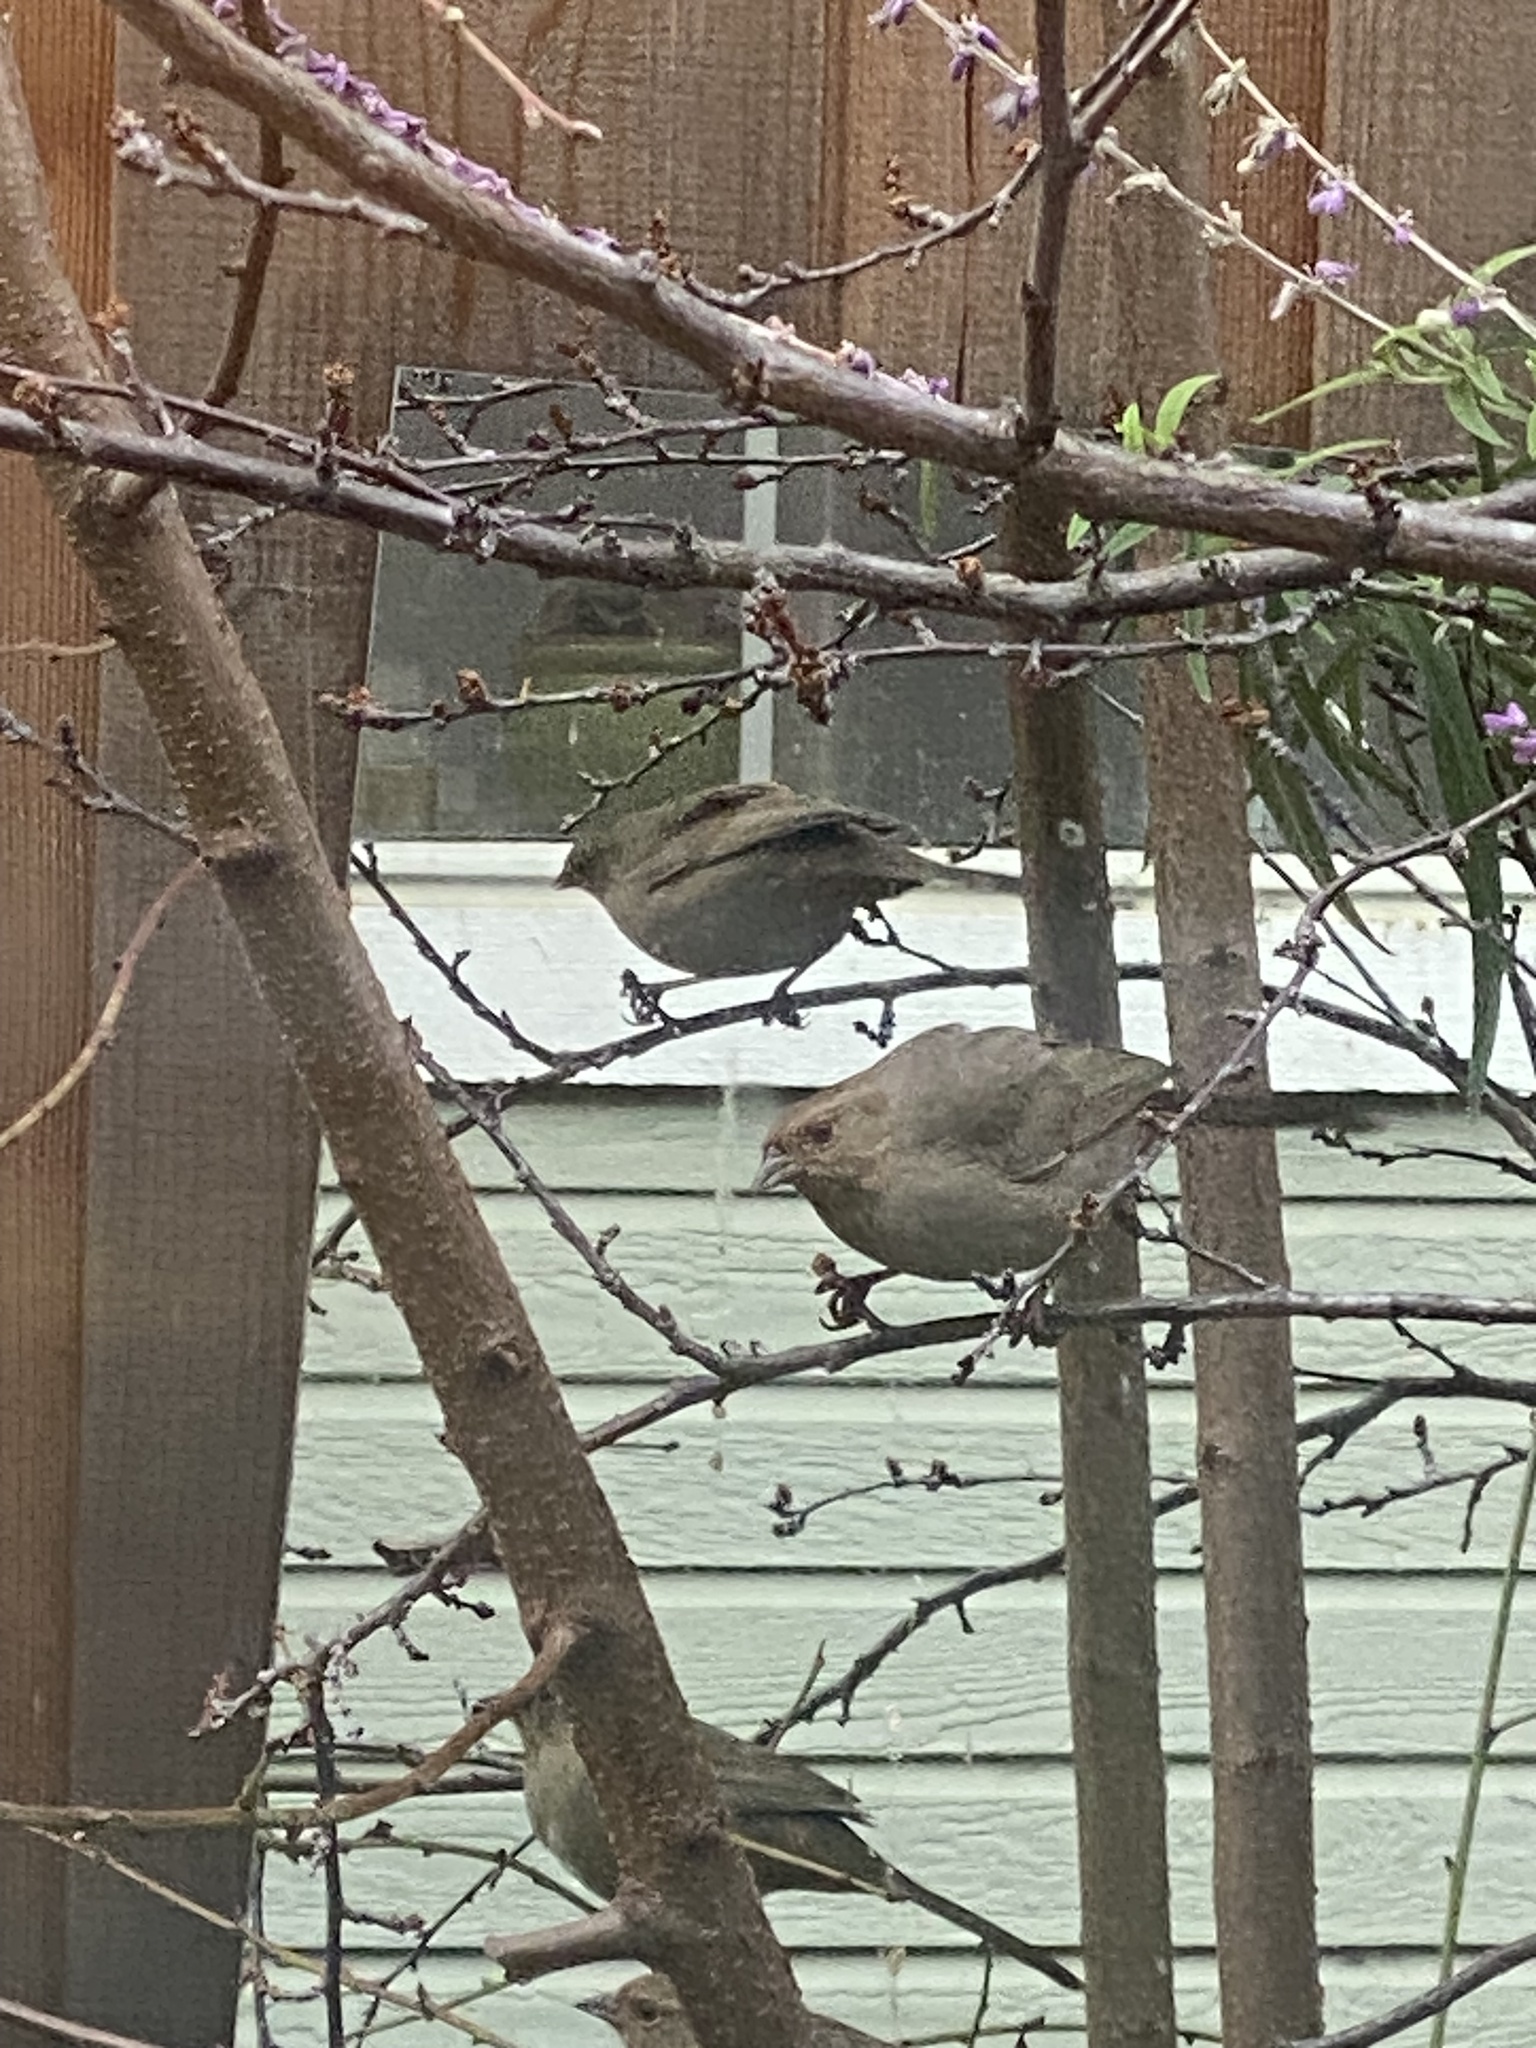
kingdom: Animalia
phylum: Chordata
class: Aves
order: Passeriformes
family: Passerellidae
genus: Melozone
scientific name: Melozone crissalis
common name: California towhee
